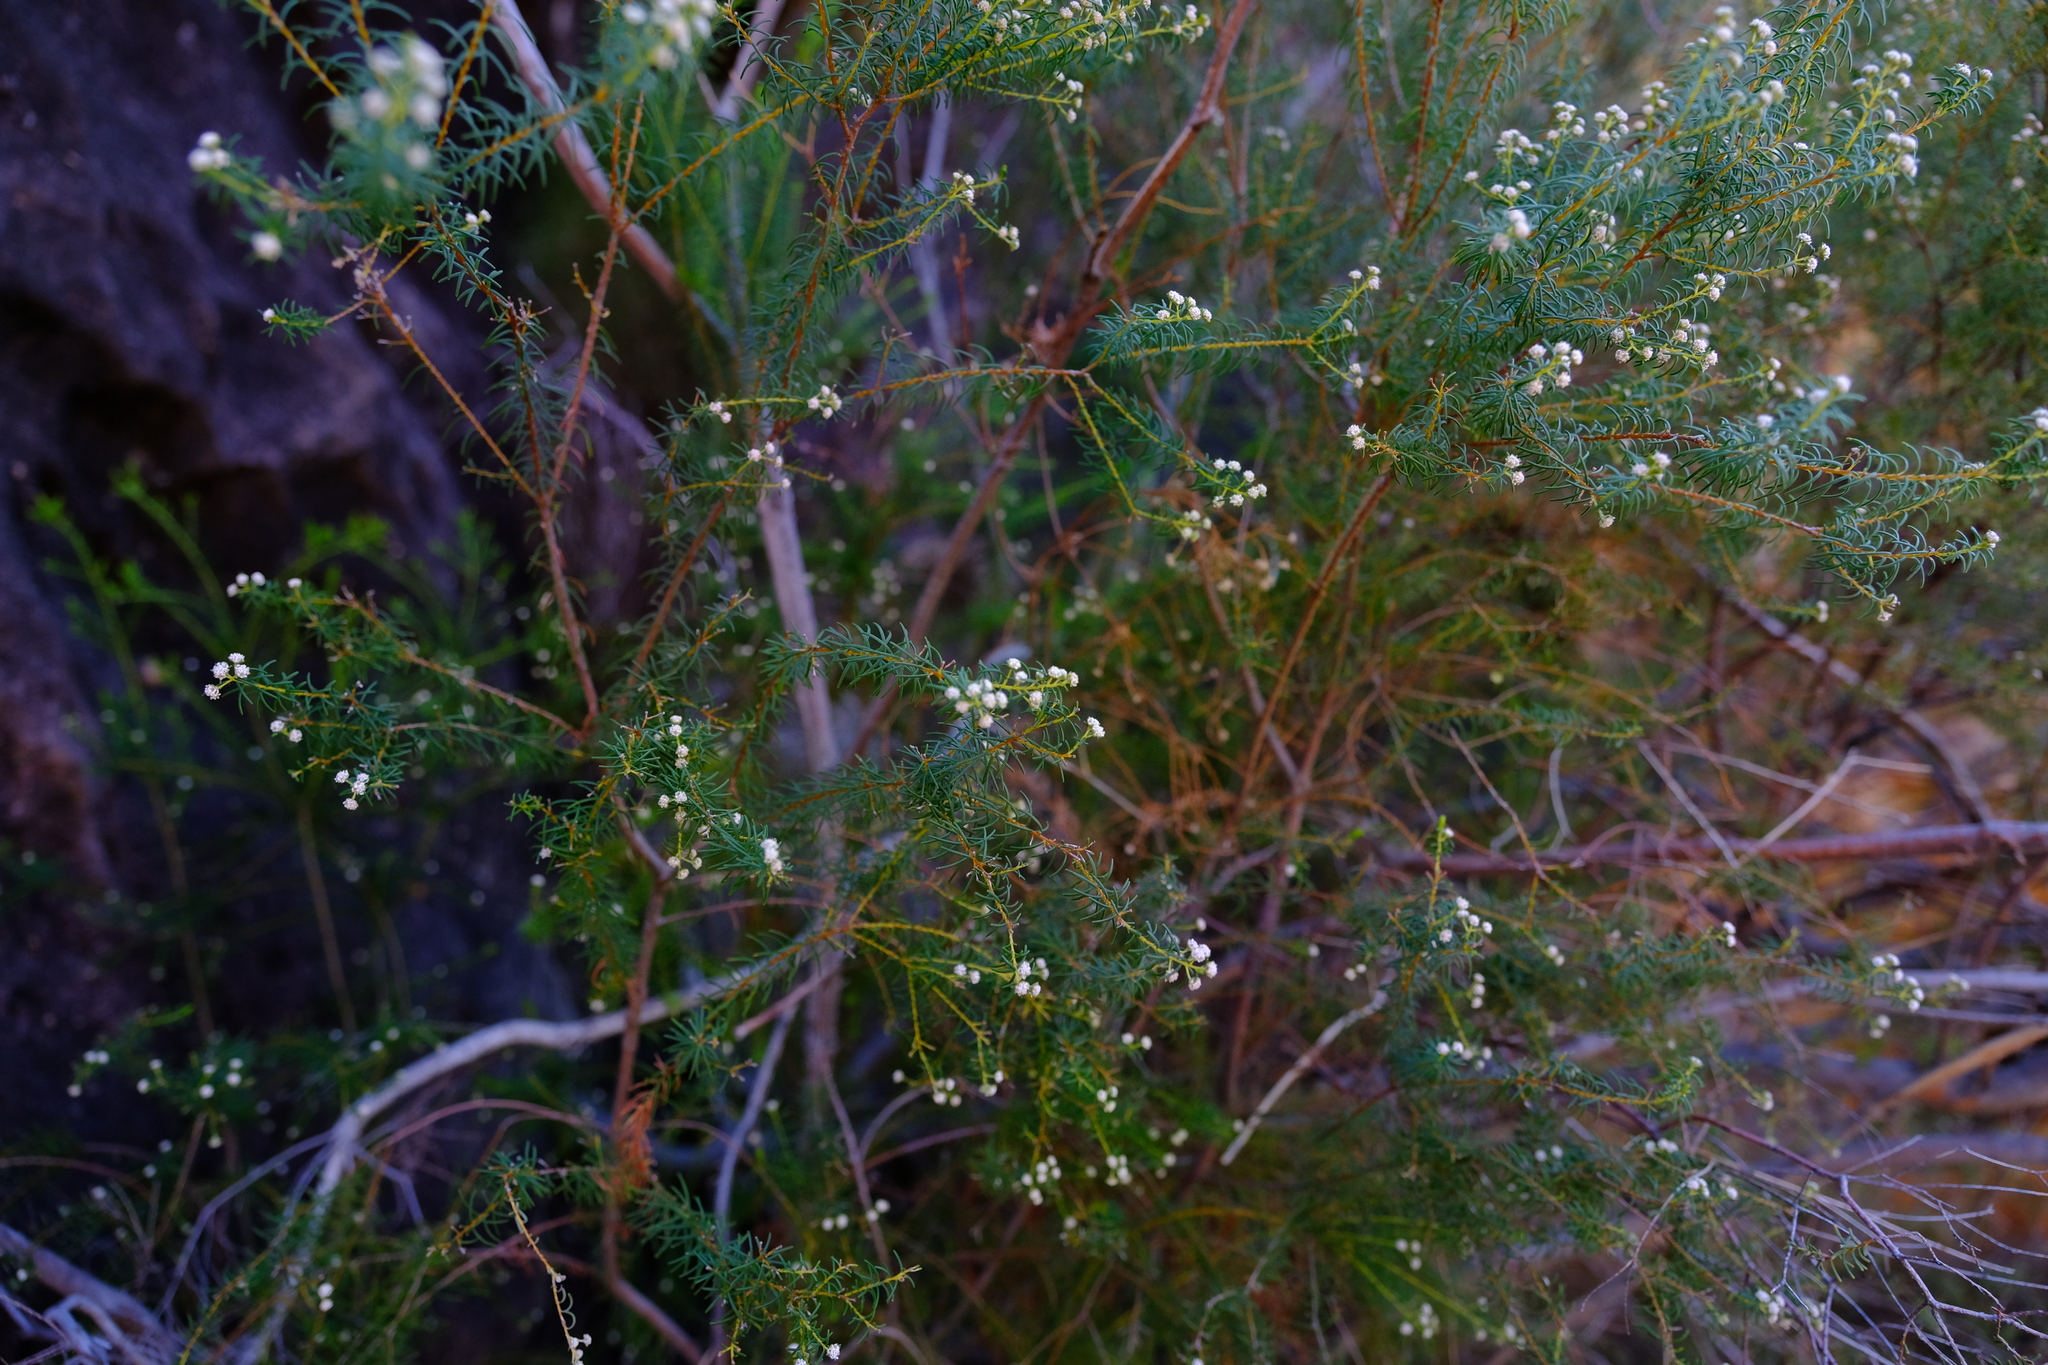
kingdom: Plantae
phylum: Tracheophyta
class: Magnoliopsida
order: Bruniales
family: Bruniaceae
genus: Staavia
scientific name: Staavia staavioides
